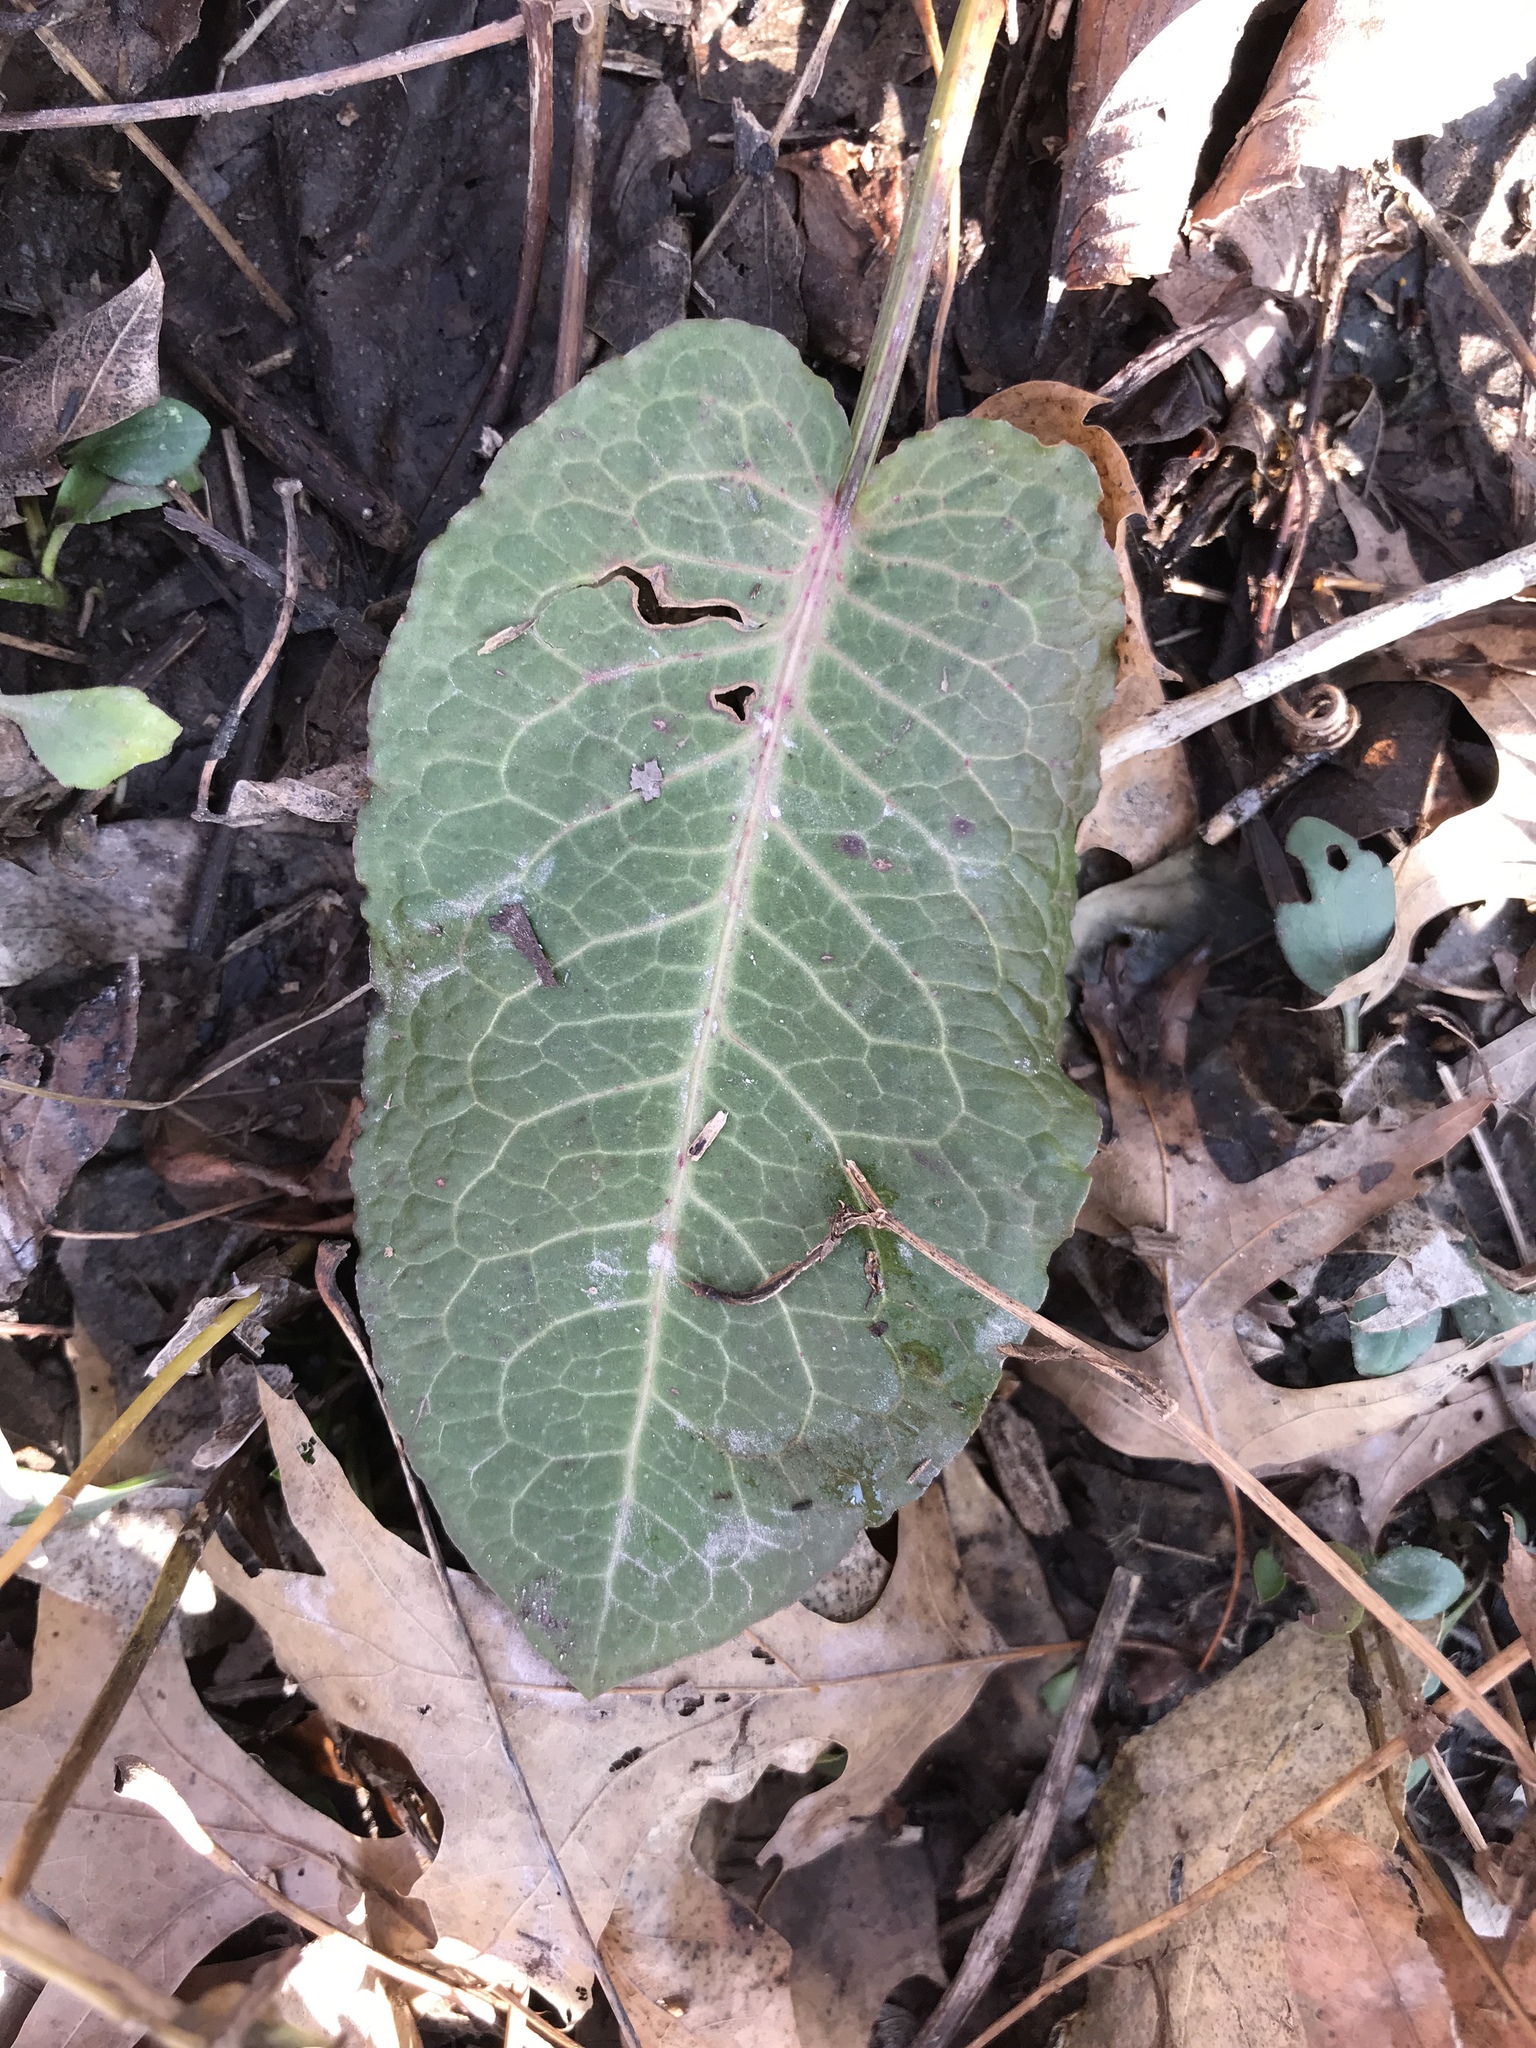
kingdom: Plantae
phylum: Tracheophyta
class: Magnoliopsida
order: Caryophyllales
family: Polygonaceae
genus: Rumex
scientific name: Rumex obtusifolius
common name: Bitter dock
